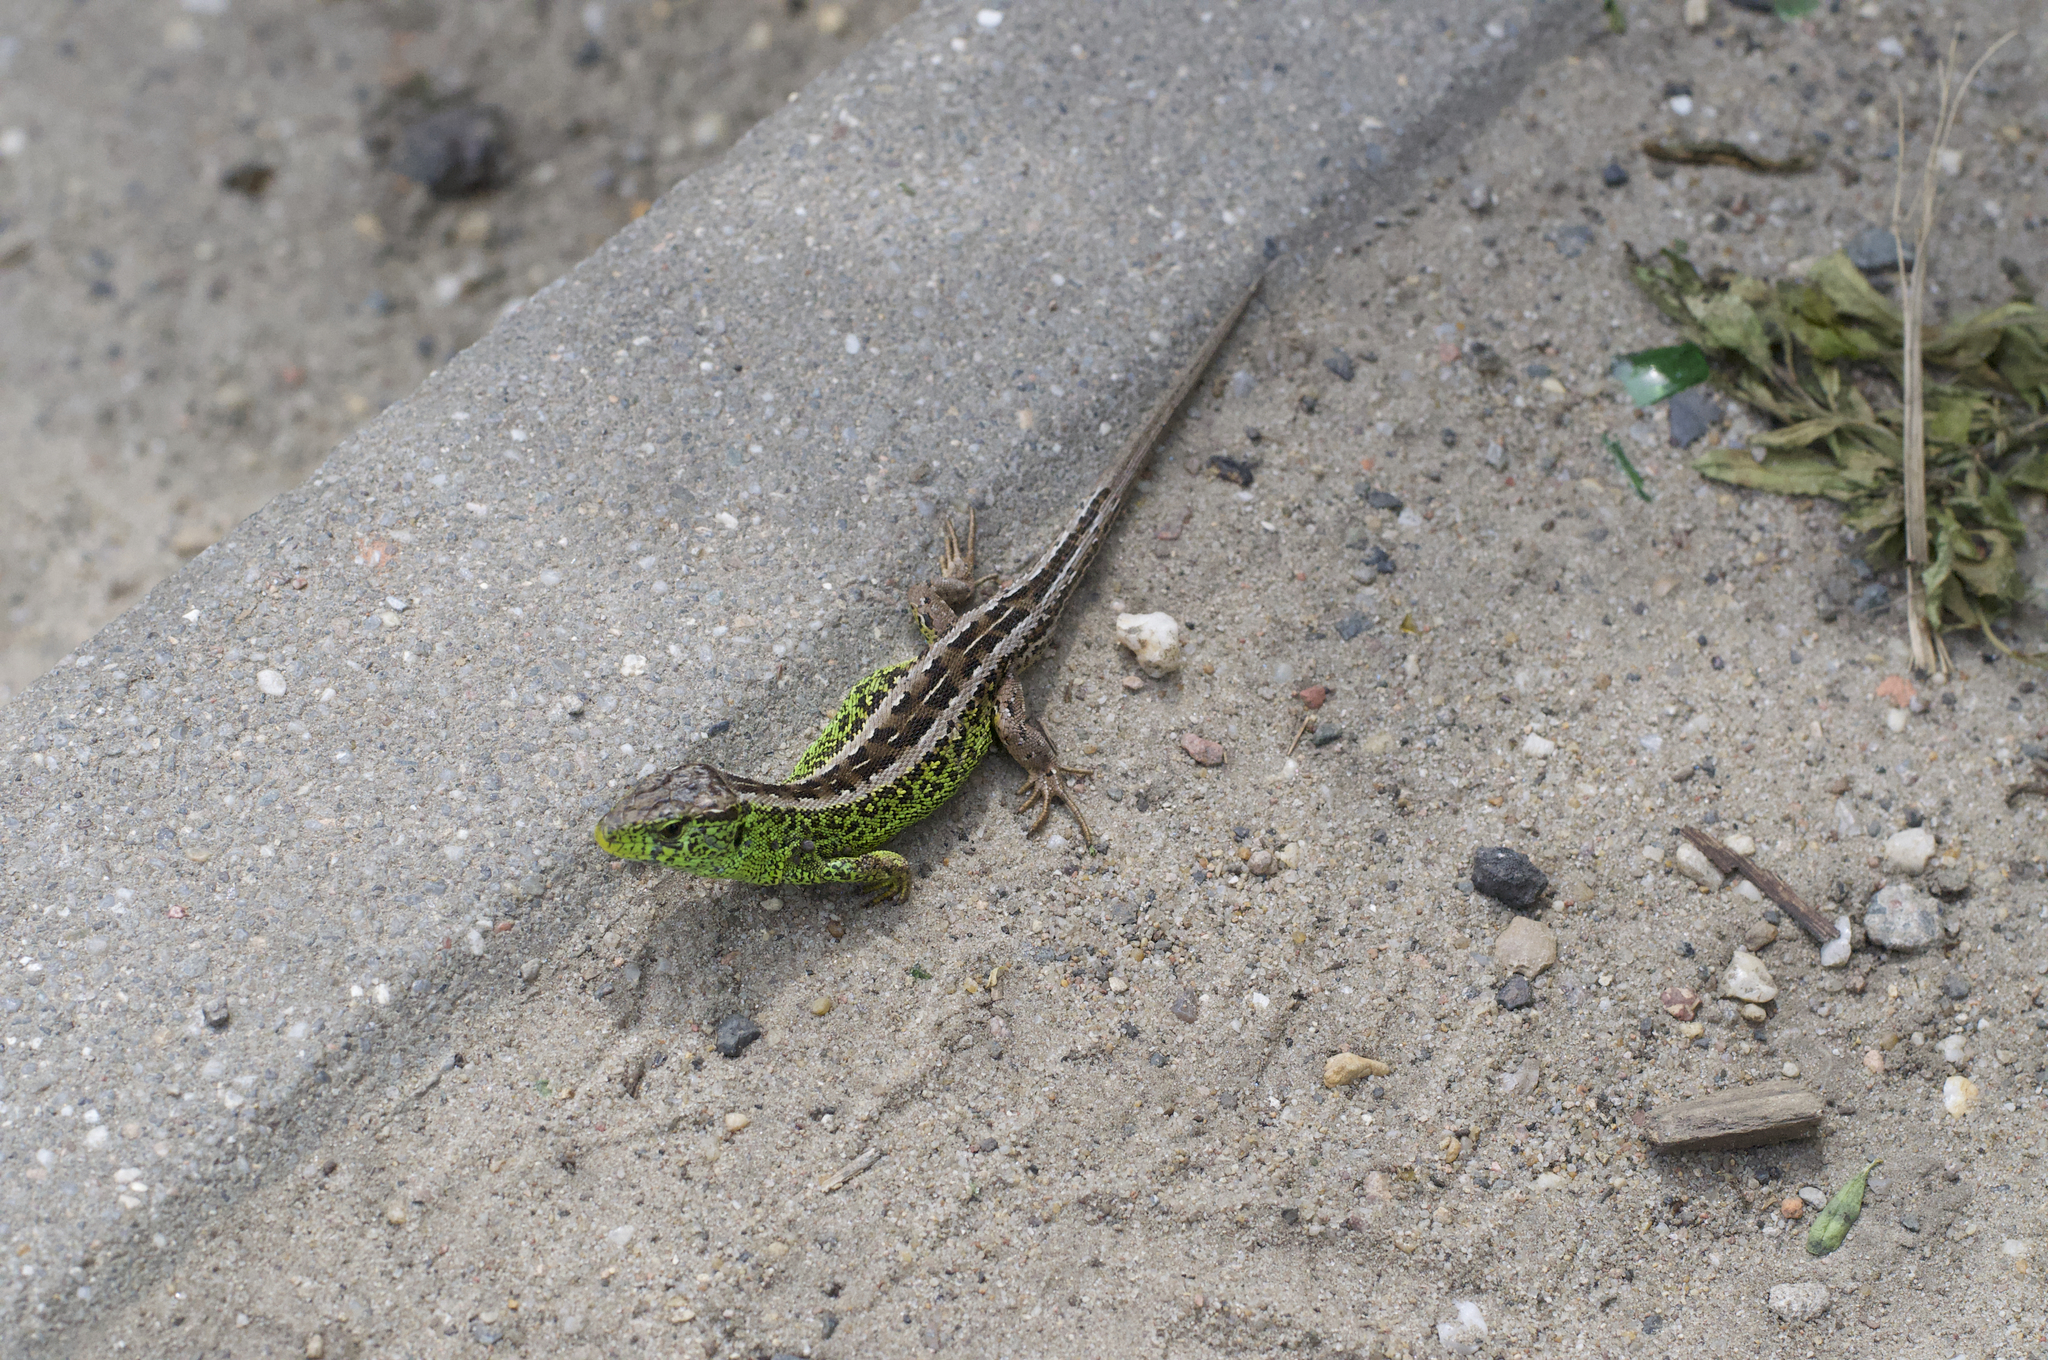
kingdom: Animalia
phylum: Chordata
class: Squamata
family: Lacertidae
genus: Lacerta
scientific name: Lacerta agilis
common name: Sand lizard
